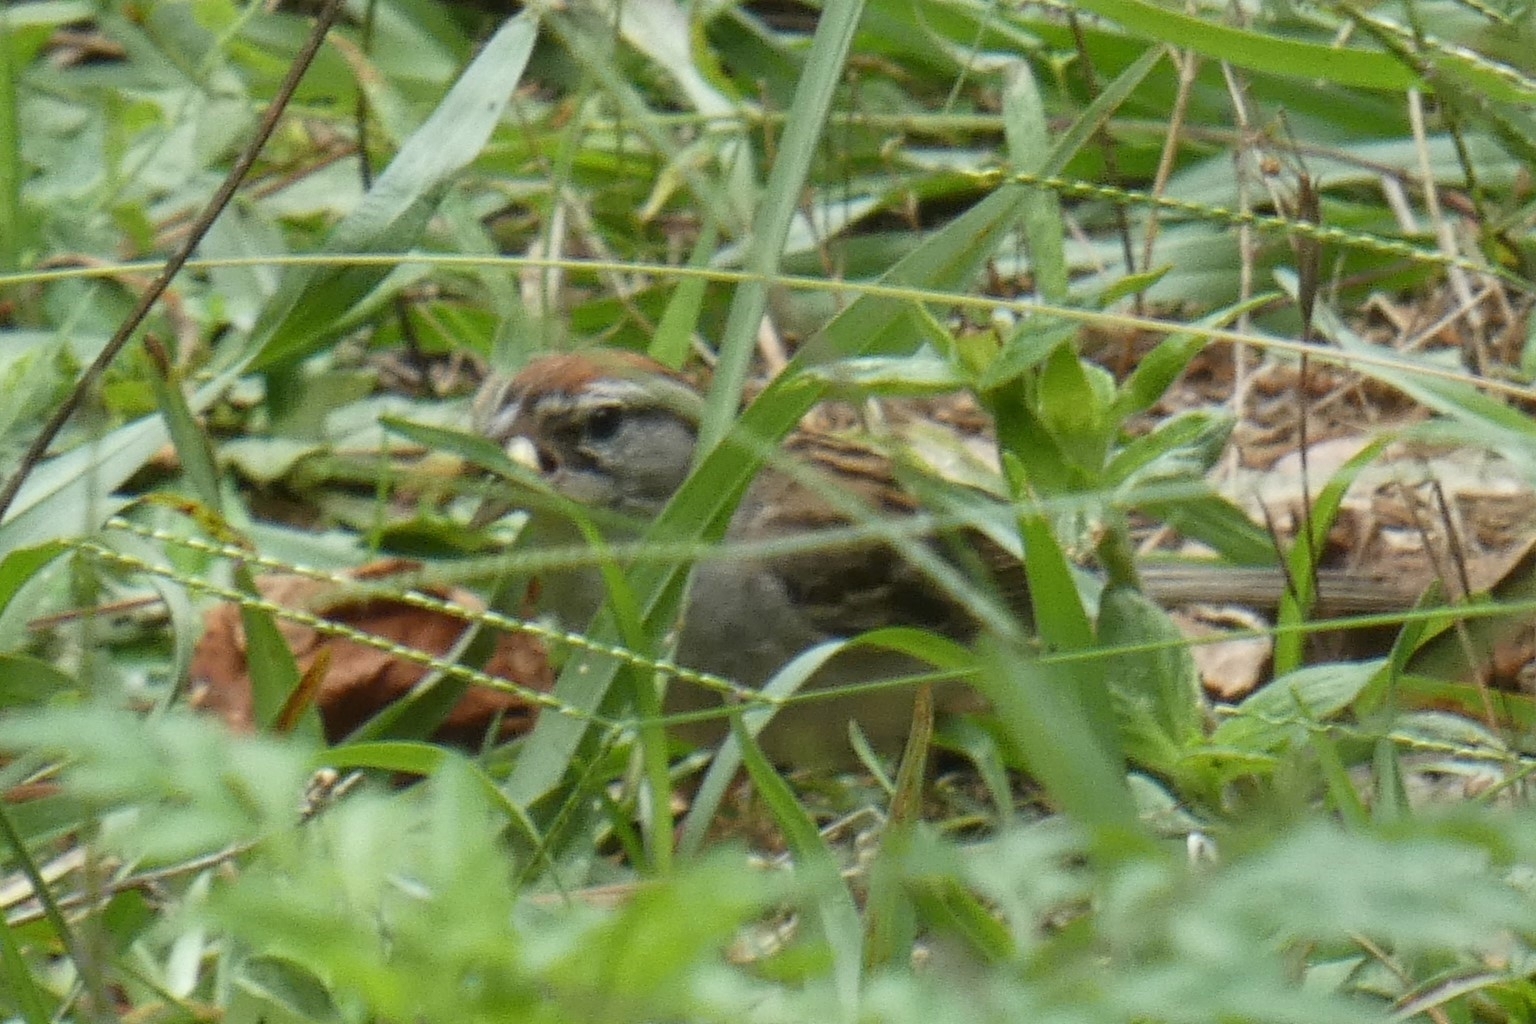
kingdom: Animalia
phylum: Chordata
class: Aves
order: Passeriformes
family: Passerellidae
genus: Spizella
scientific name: Spizella passerina
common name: Chipping sparrow
